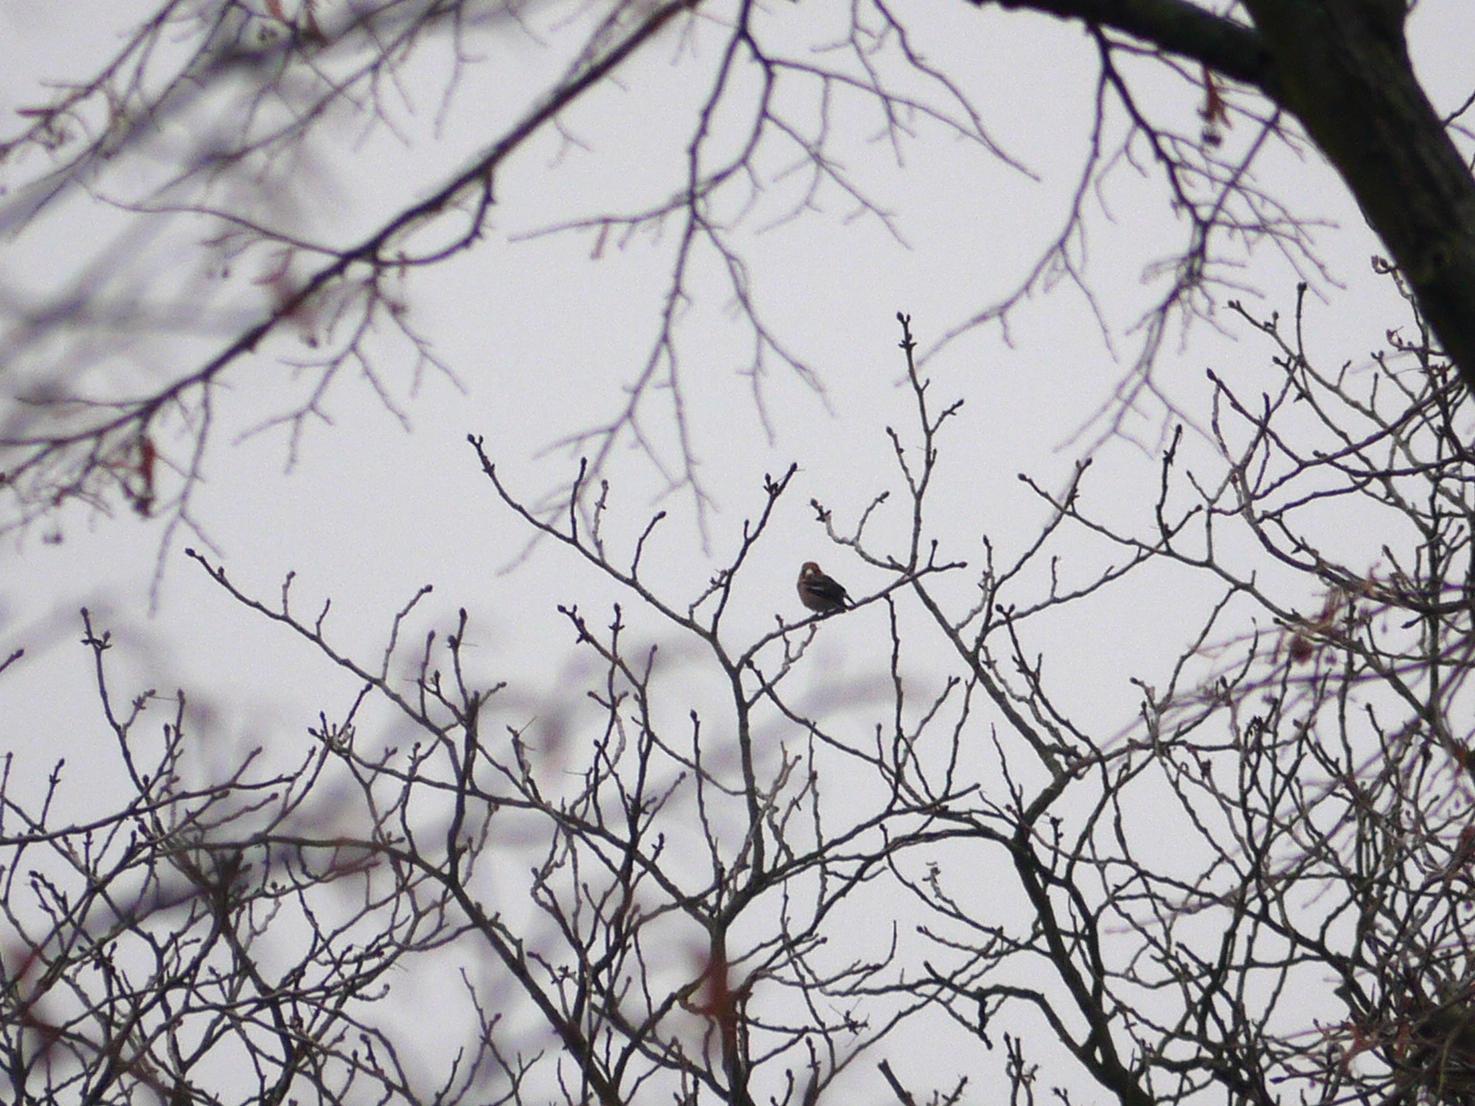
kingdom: Animalia
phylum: Chordata
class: Aves
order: Passeriformes
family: Fringillidae
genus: Coccothraustes
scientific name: Coccothraustes coccothraustes
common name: Hawfinch
